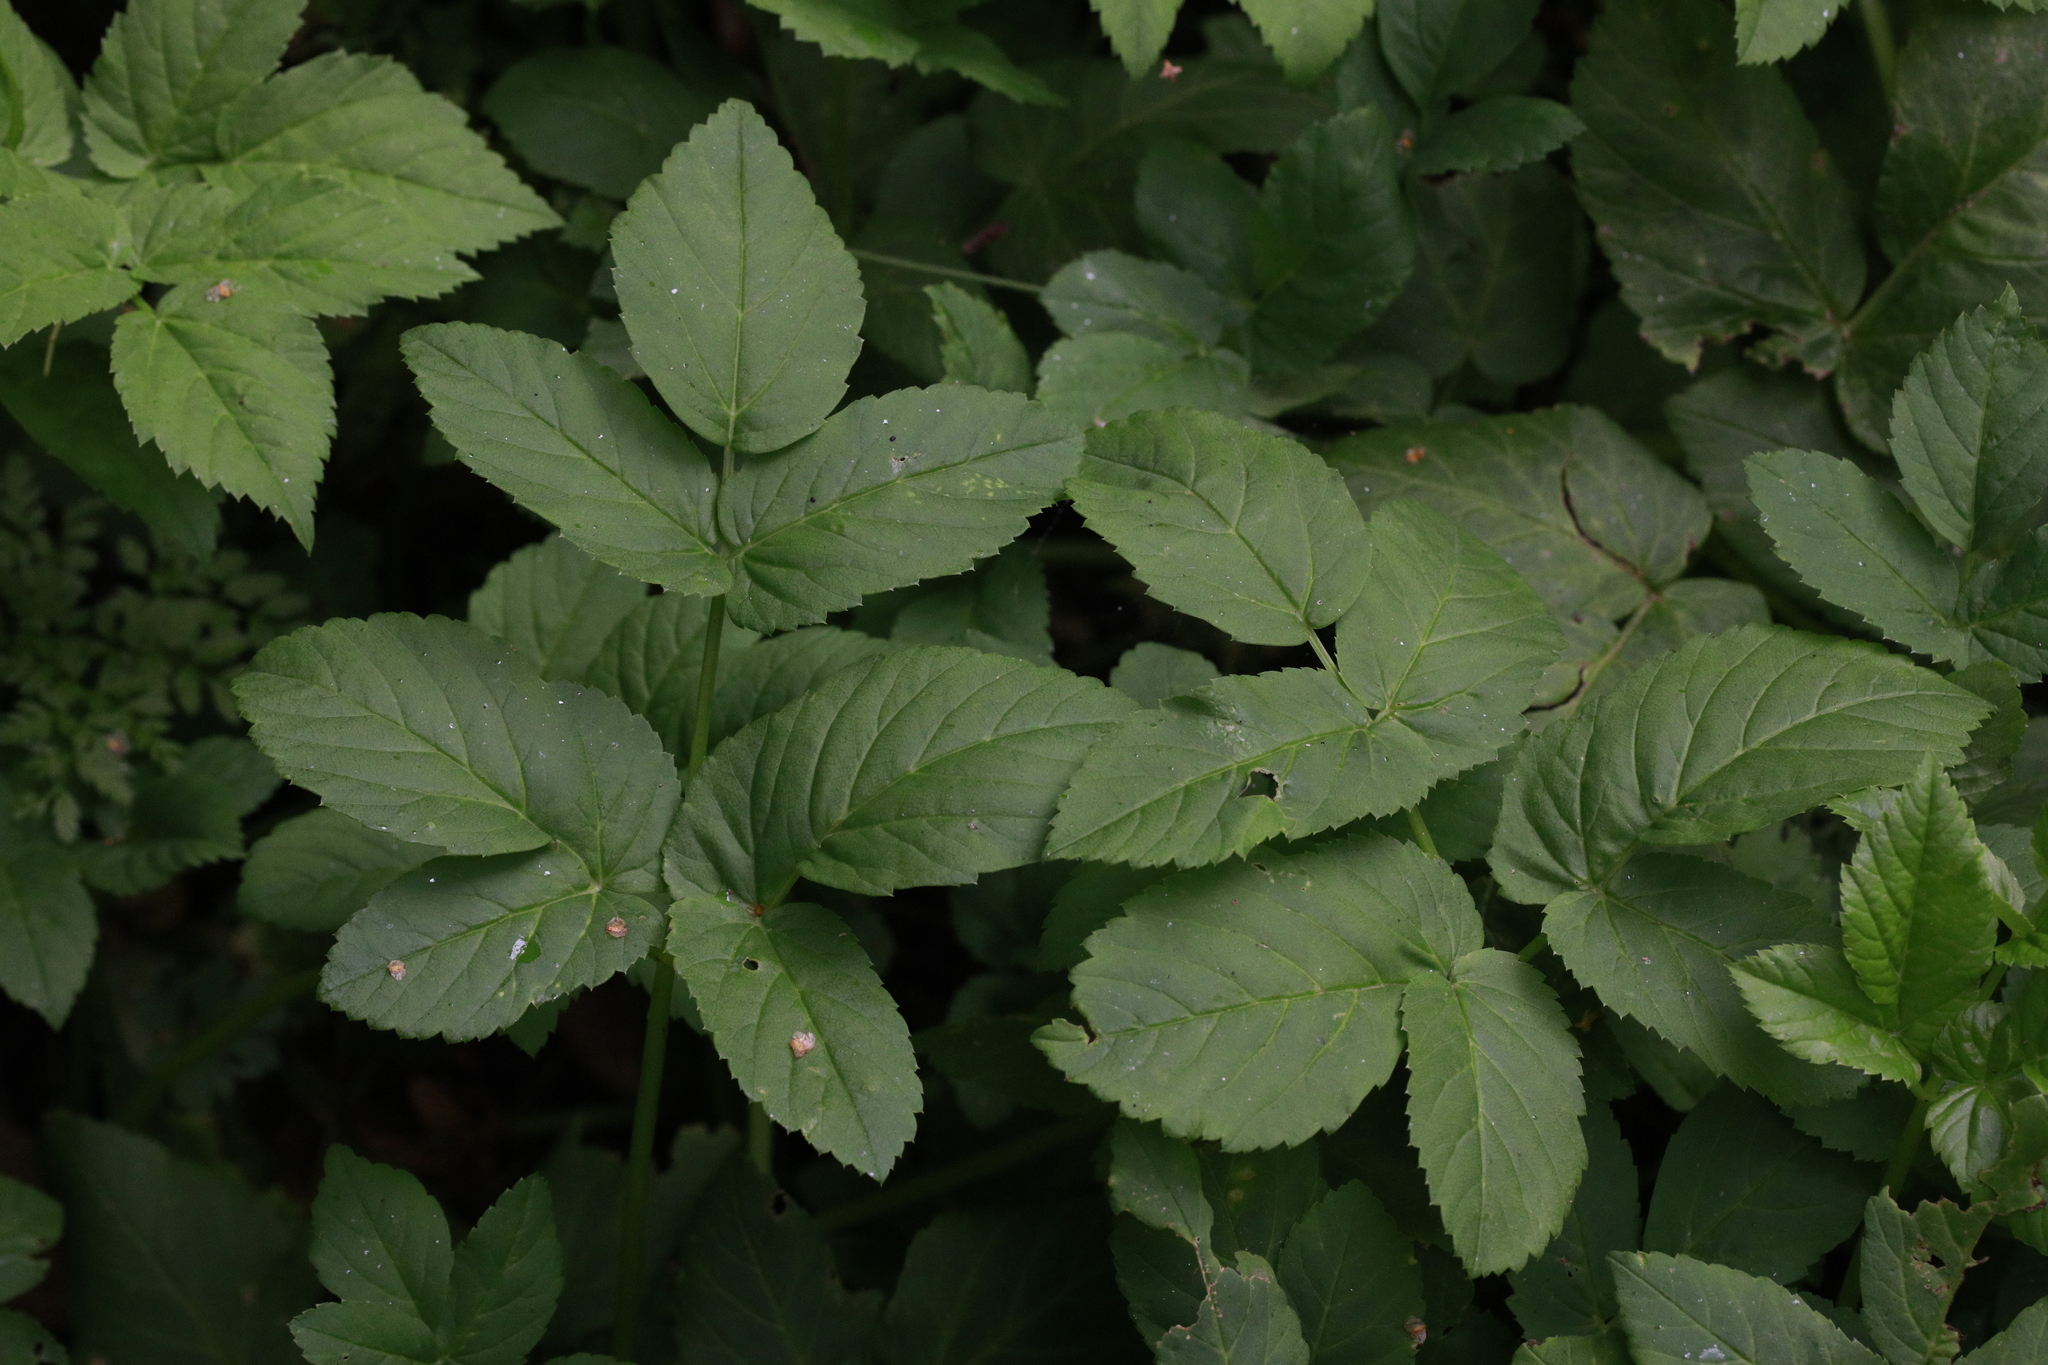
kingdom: Plantae
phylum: Tracheophyta
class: Magnoliopsida
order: Apiales
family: Apiaceae
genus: Aegopodium
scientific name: Aegopodium podagraria
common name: Ground-elder
